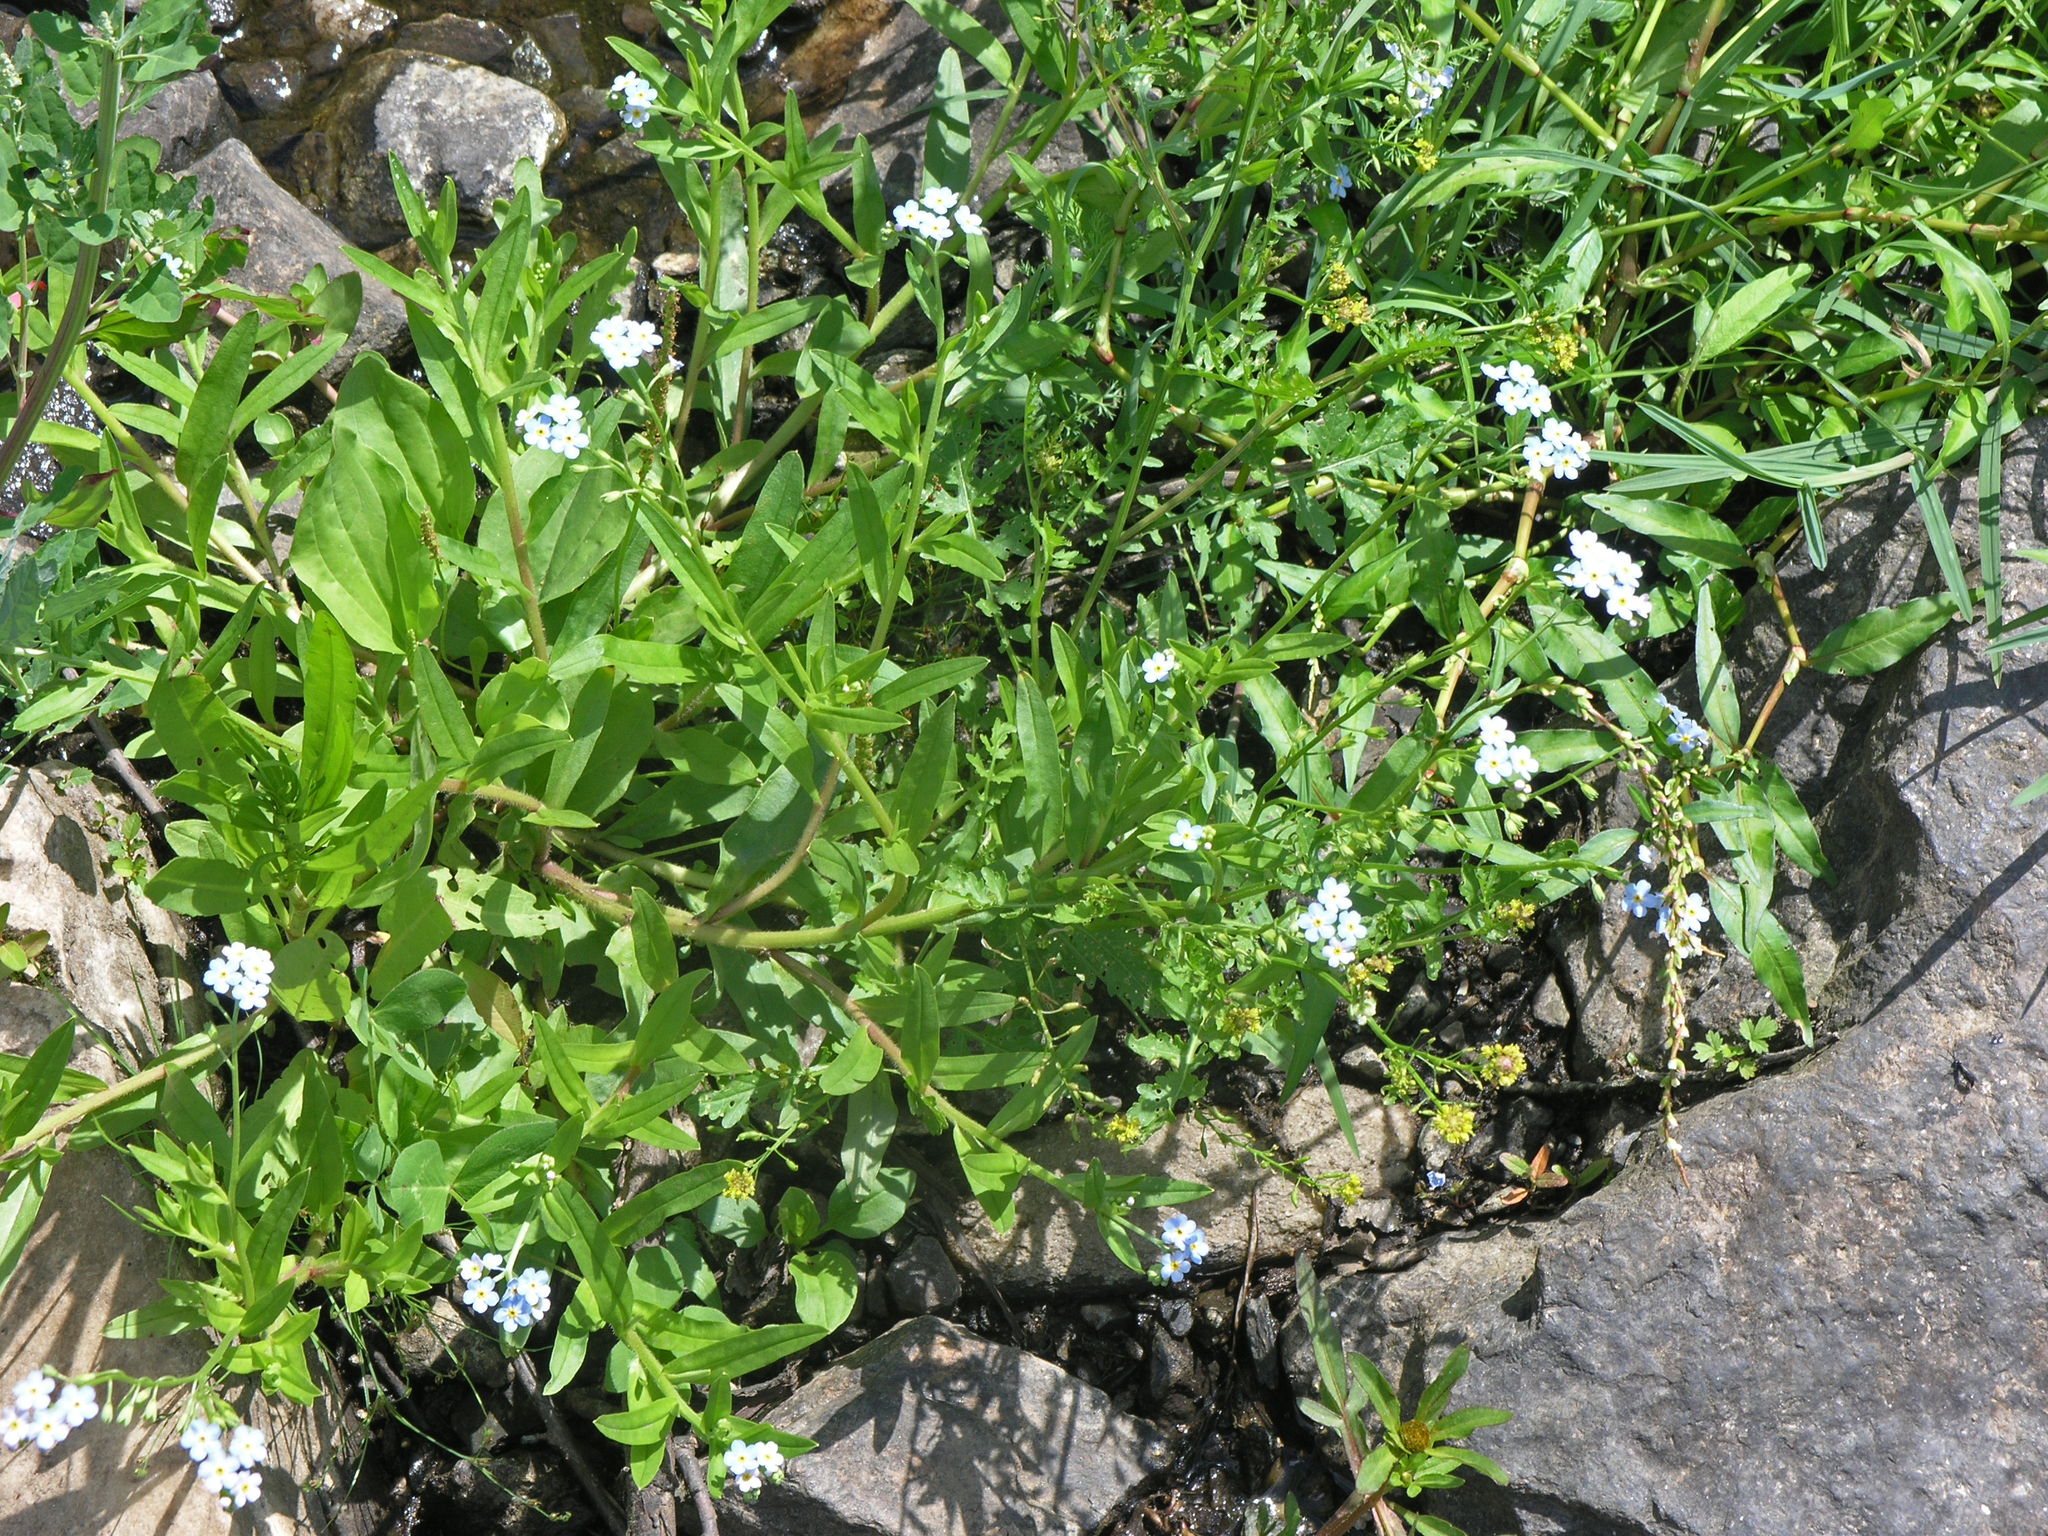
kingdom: Plantae
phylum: Tracheophyta
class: Magnoliopsida
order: Boraginales
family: Boraginaceae
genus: Myosotis
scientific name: Myosotis scorpioides
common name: Water forget-me-not
